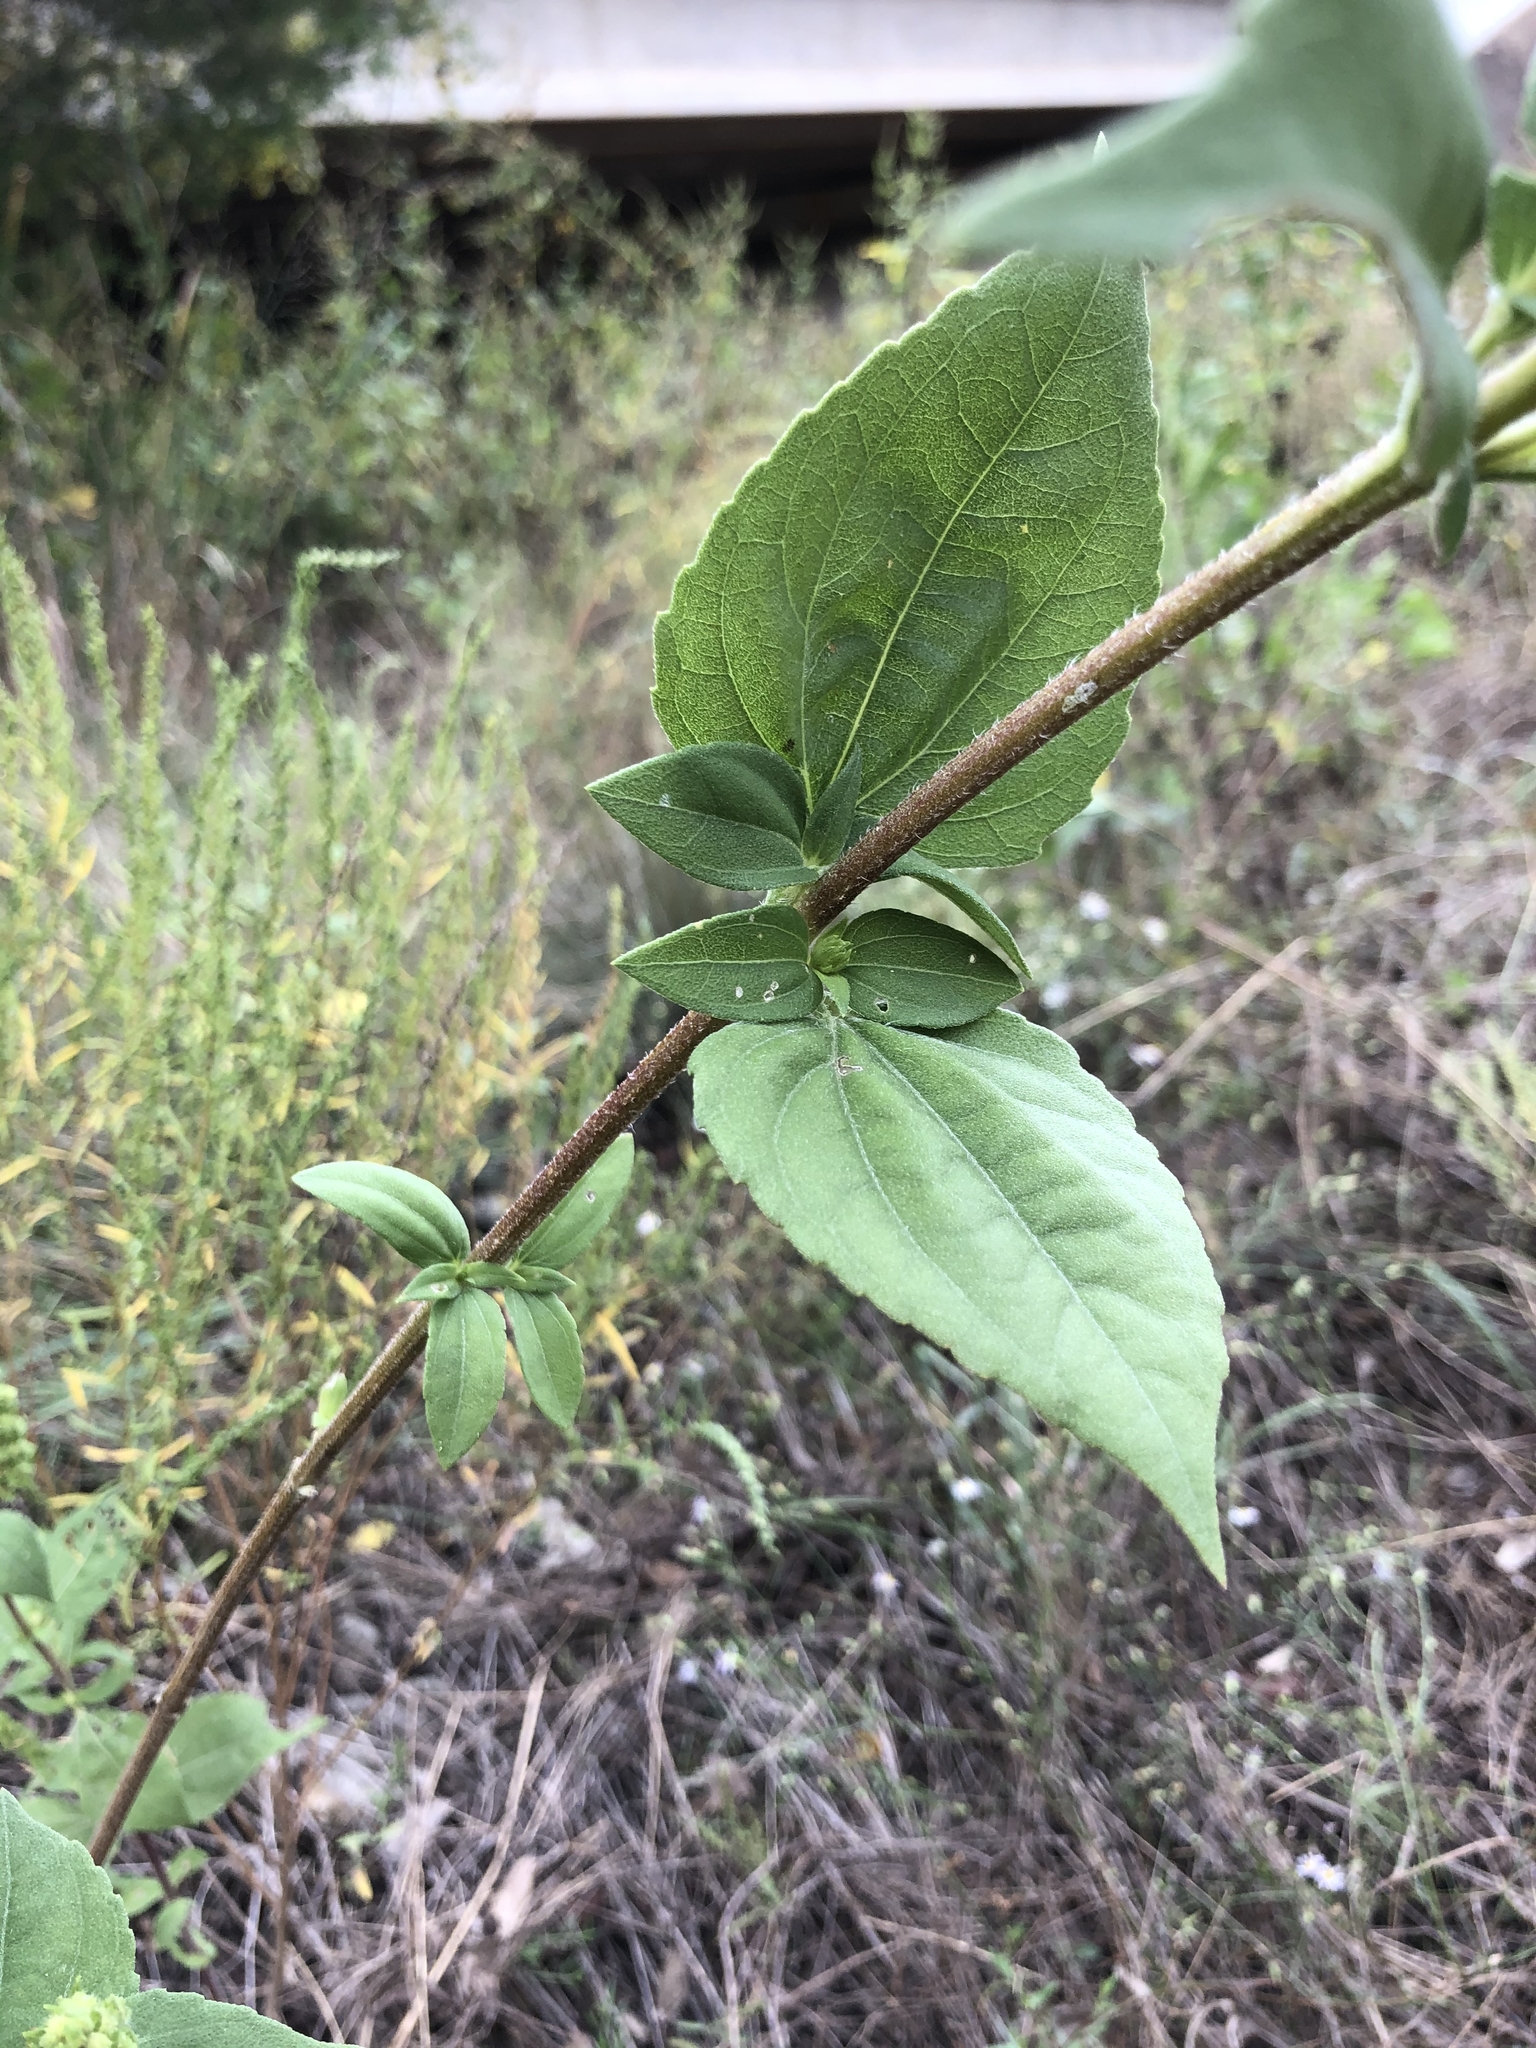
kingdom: Plantae
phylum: Tracheophyta
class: Magnoliopsida
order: Asterales
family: Asteraceae
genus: Iva
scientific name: Iva annua
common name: Marsh-elder
